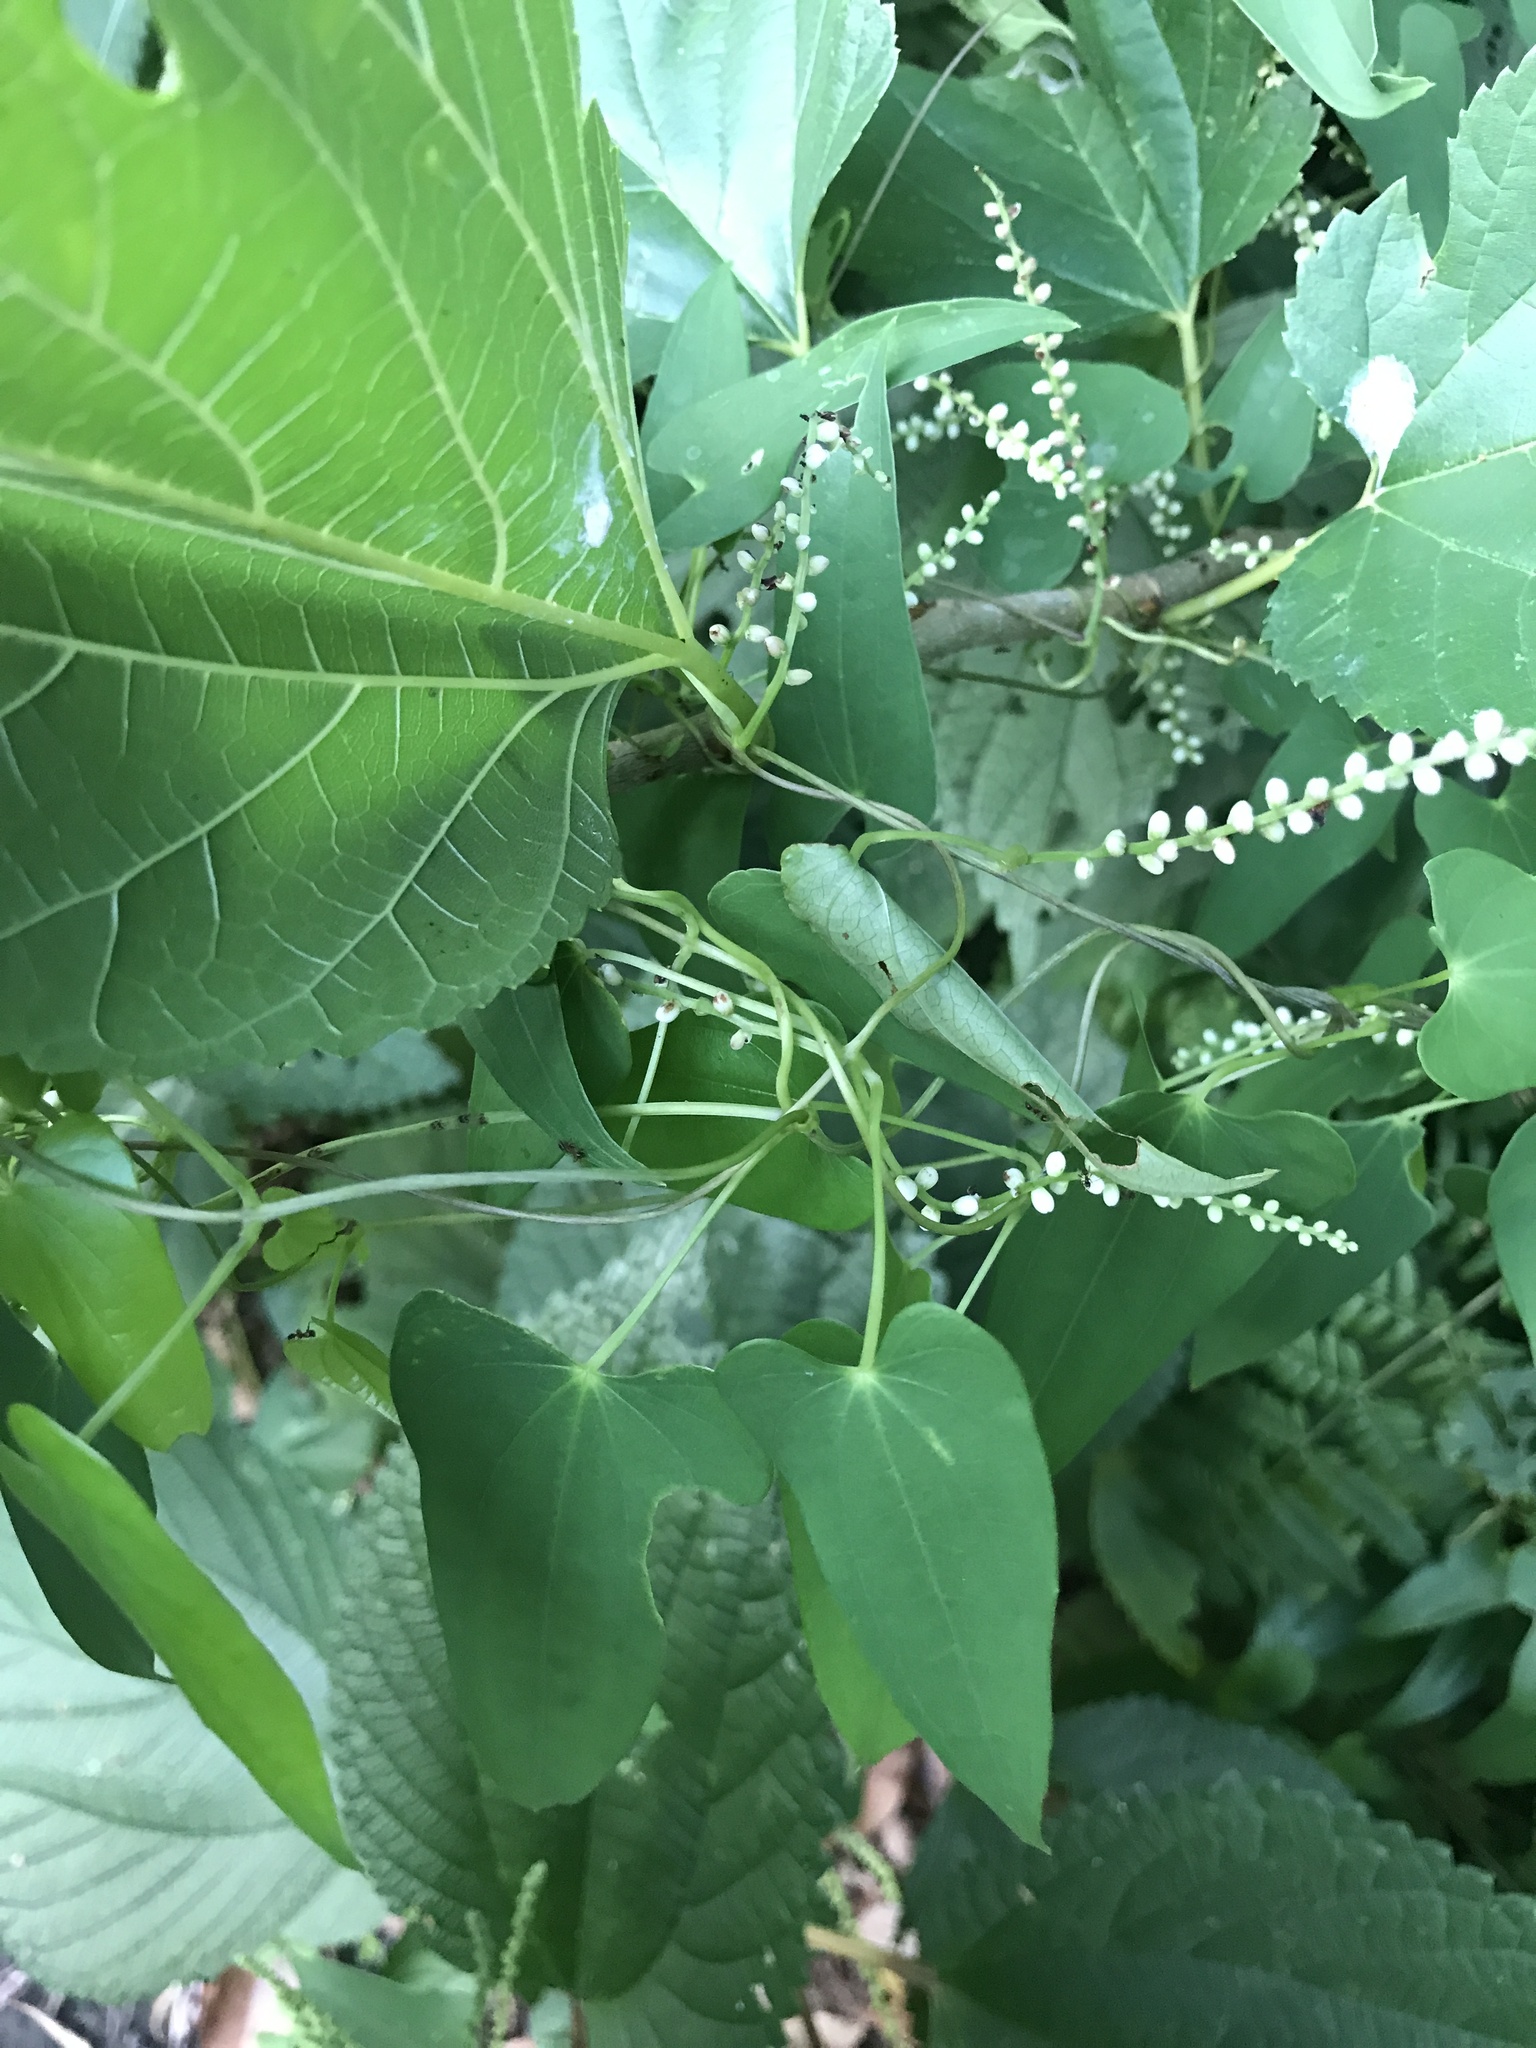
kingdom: Plantae
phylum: Tracheophyta
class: Liliopsida
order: Dioscoreales
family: Dioscoreaceae
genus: Dioscorea
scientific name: Dioscorea japonica
